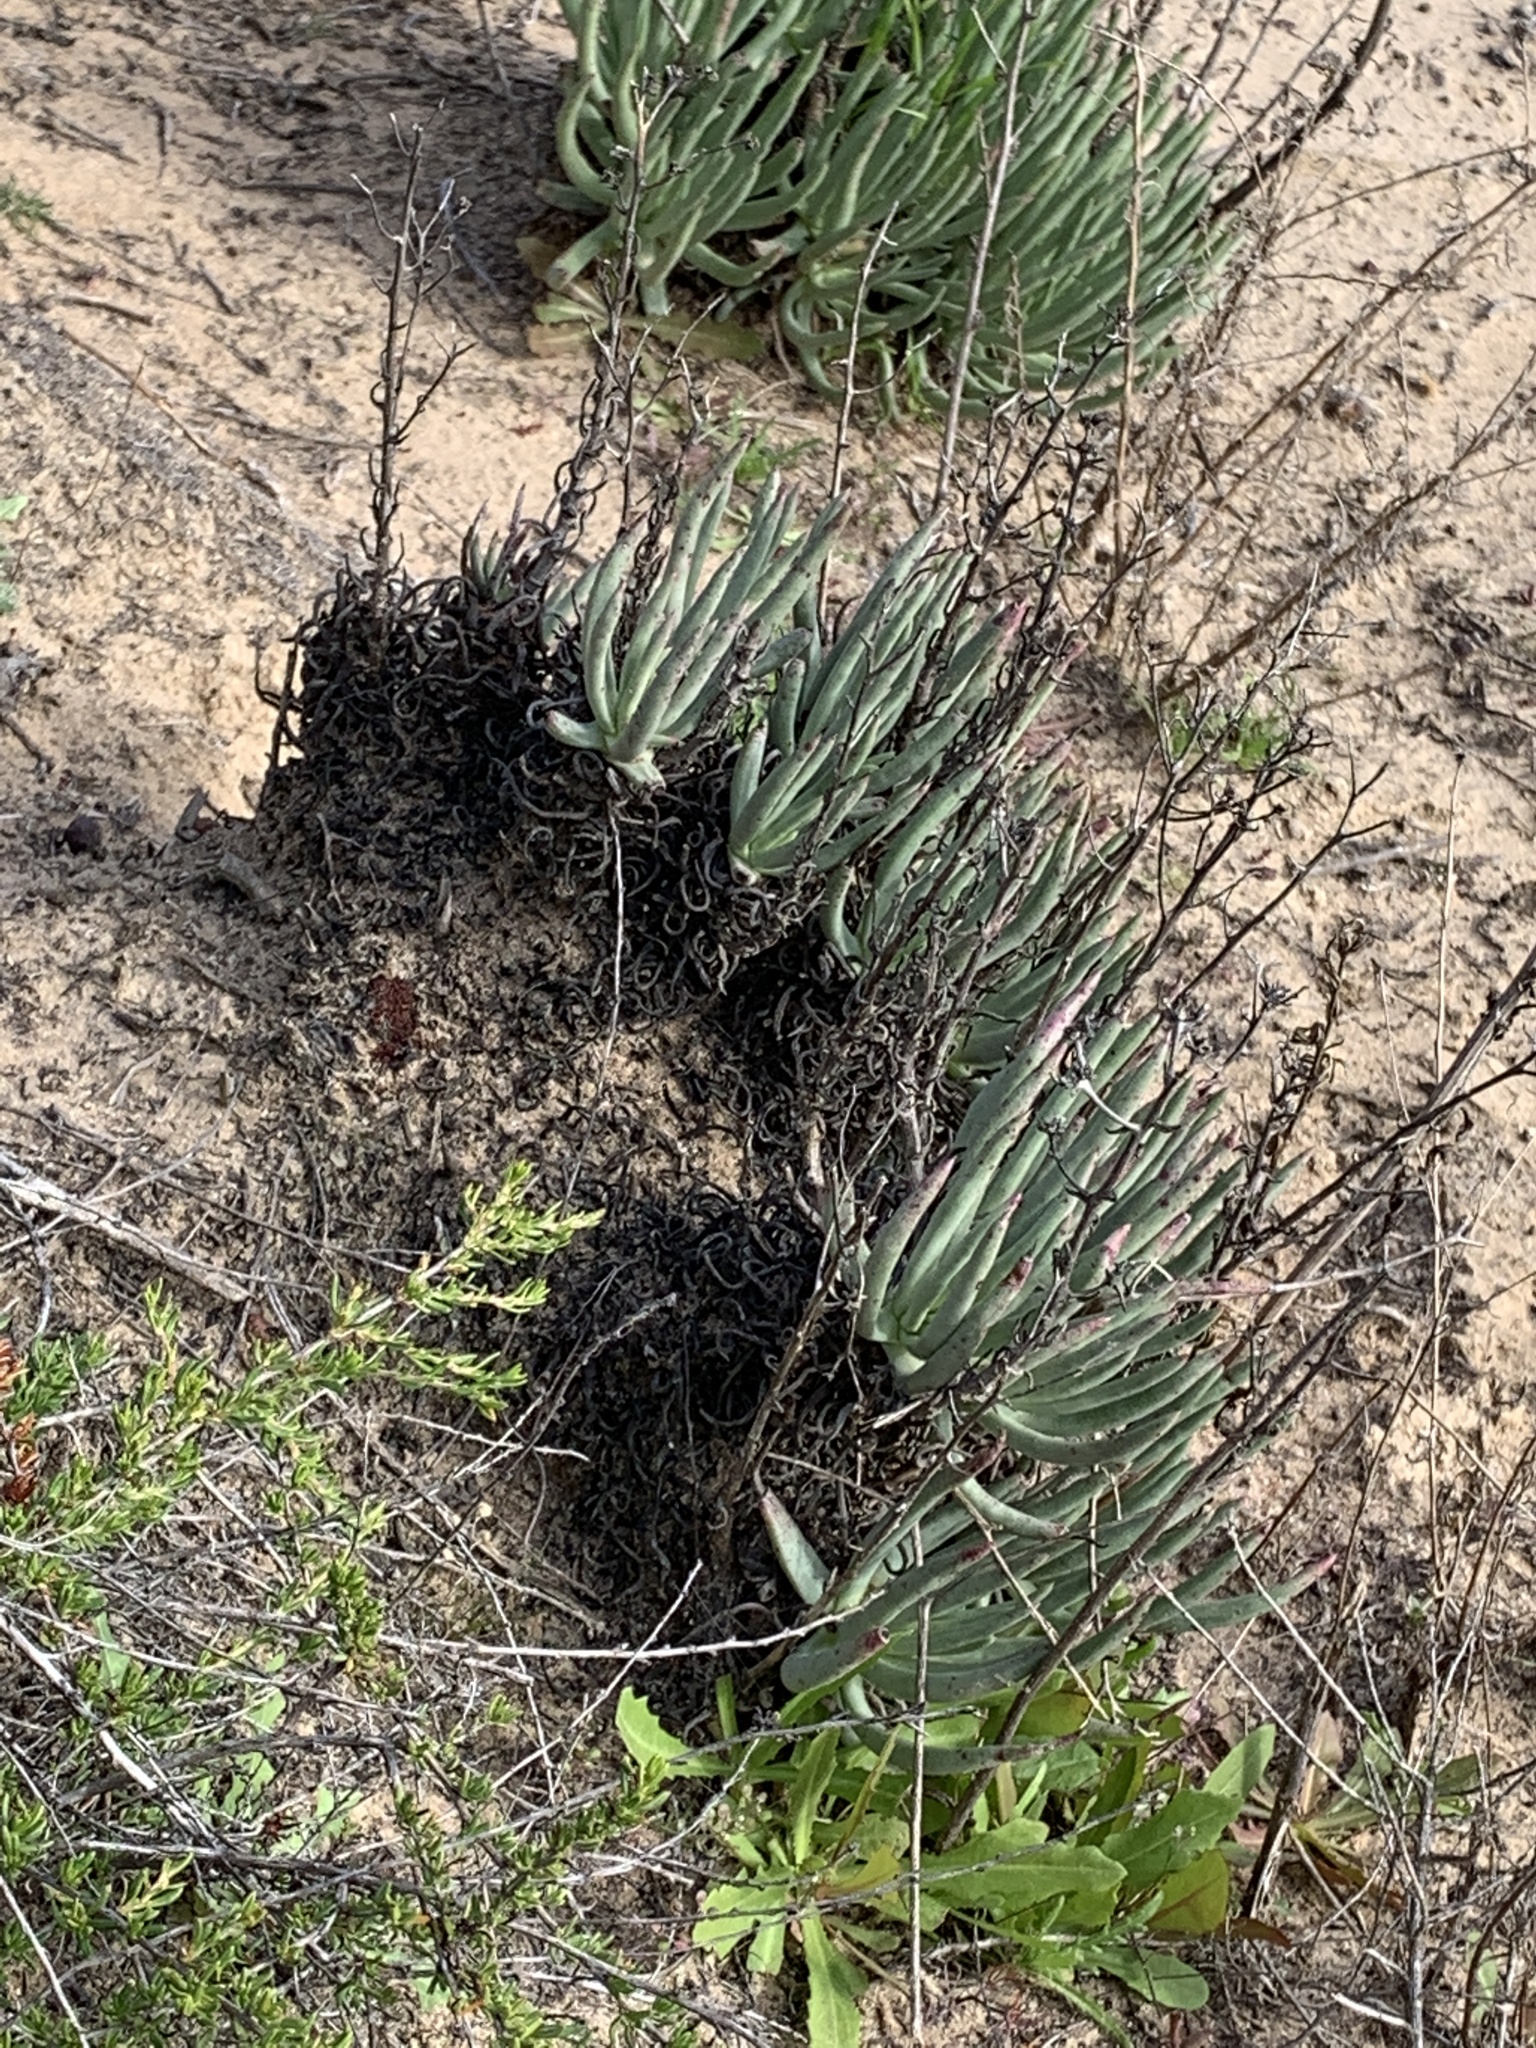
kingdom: Plantae
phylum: Tracheophyta
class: Magnoliopsida
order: Saxifragales
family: Crassulaceae
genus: Dudleya
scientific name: Dudleya edulis
